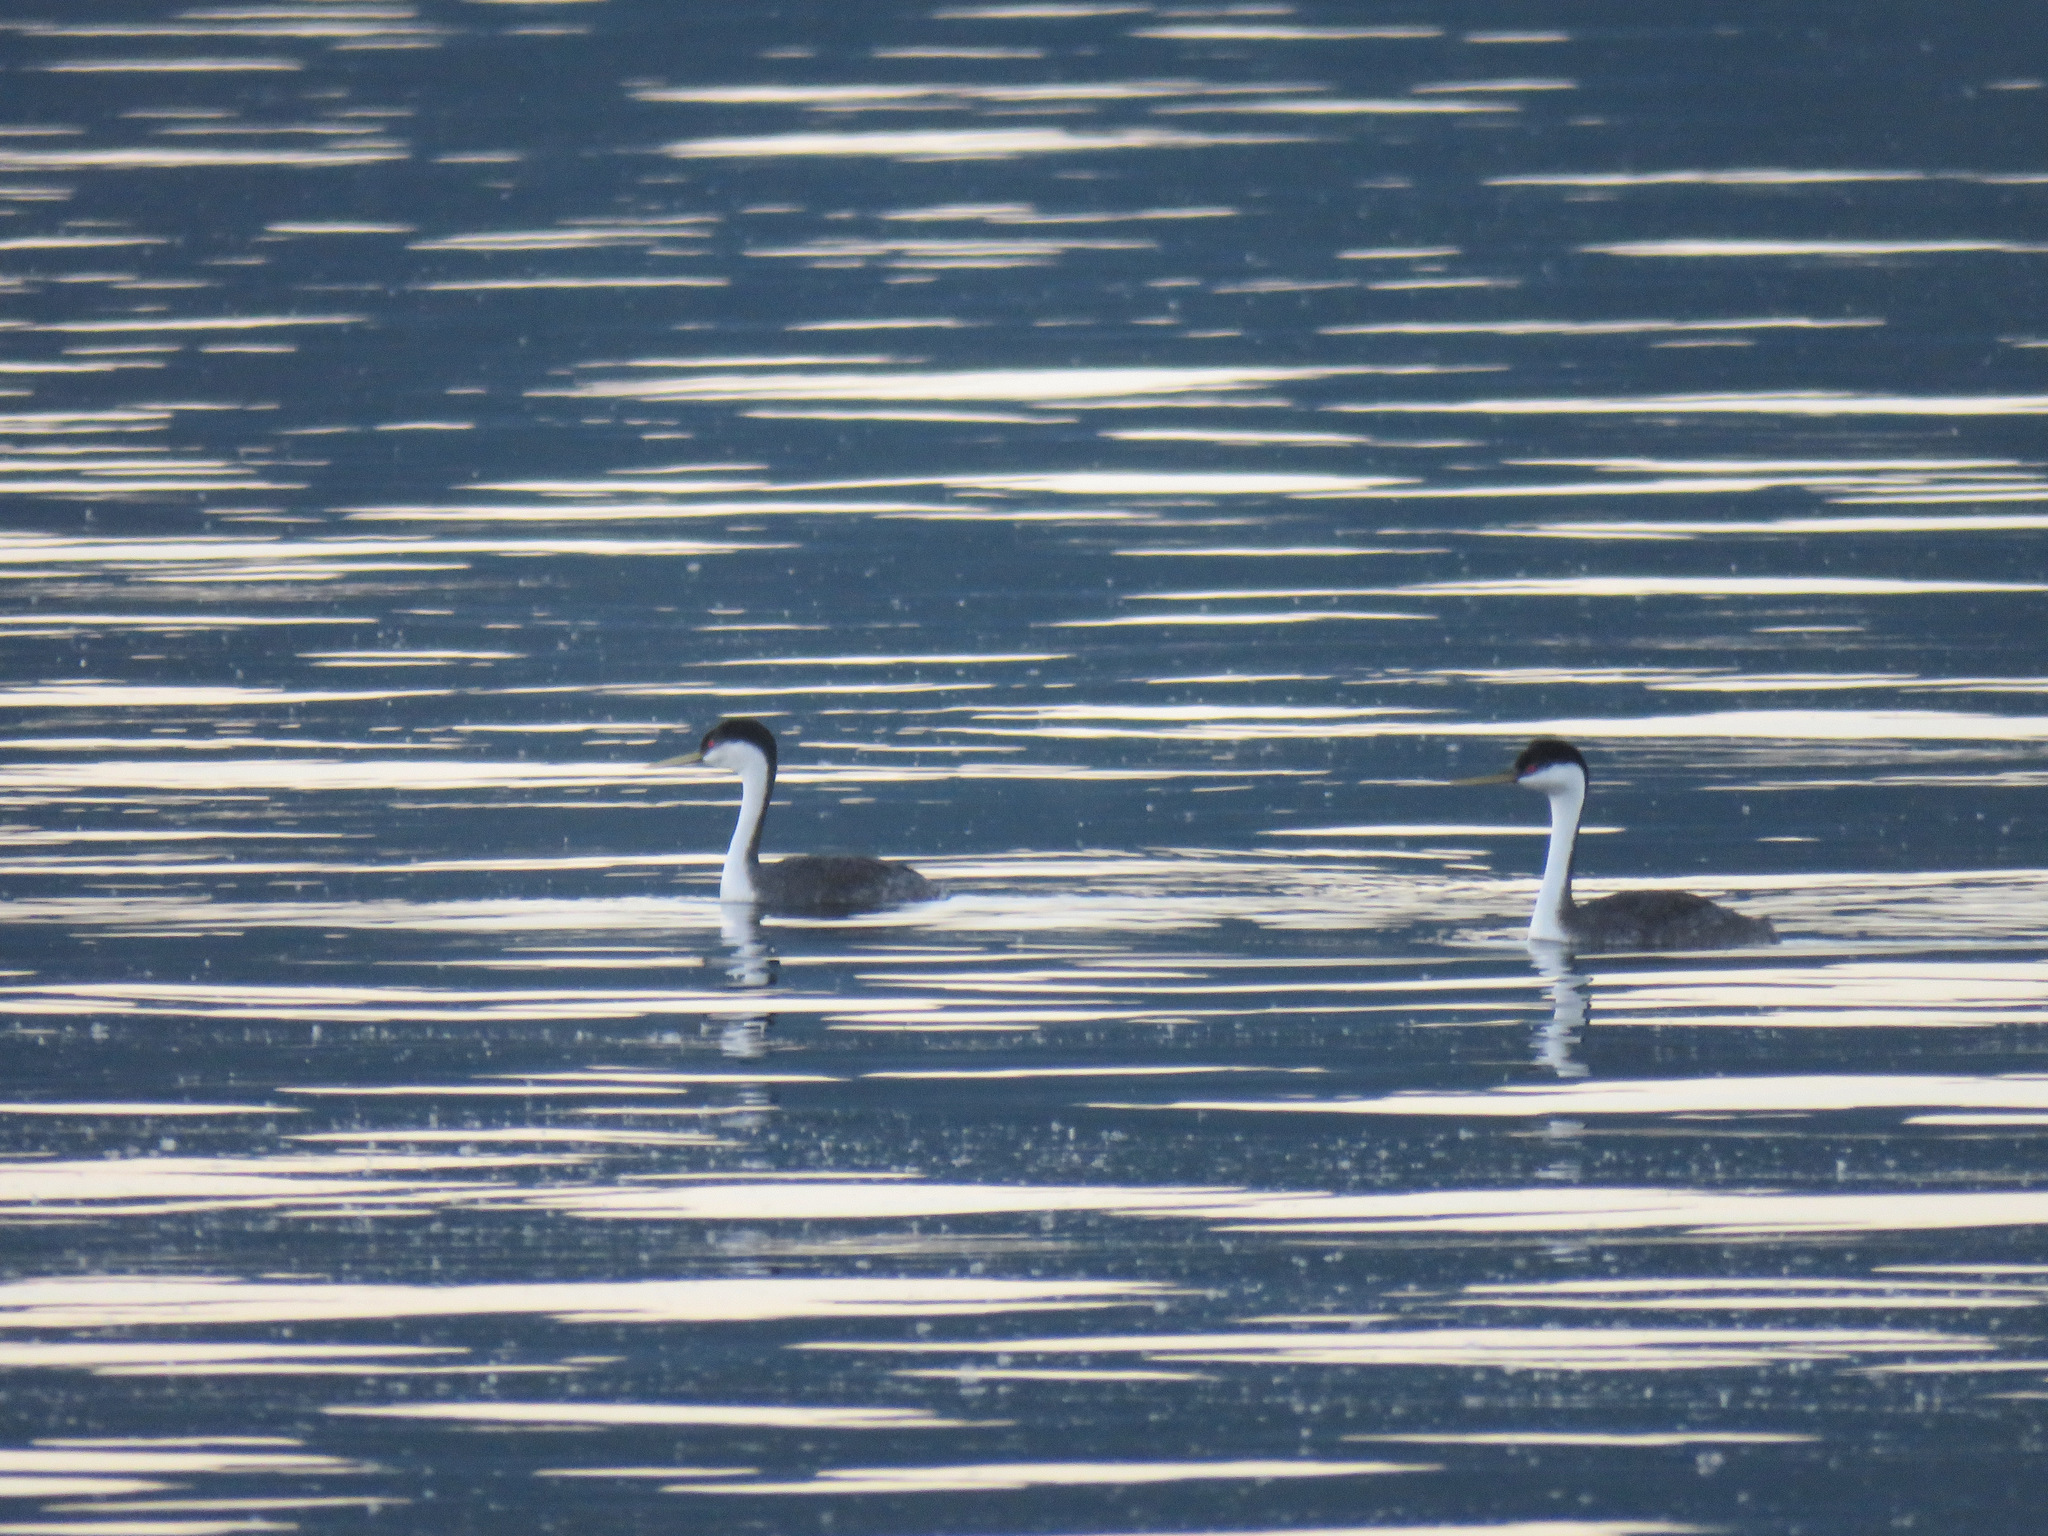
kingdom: Animalia
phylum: Chordata
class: Aves
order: Podicipediformes
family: Podicipedidae
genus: Aechmophorus
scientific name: Aechmophorus occidentalis
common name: Western grebe
